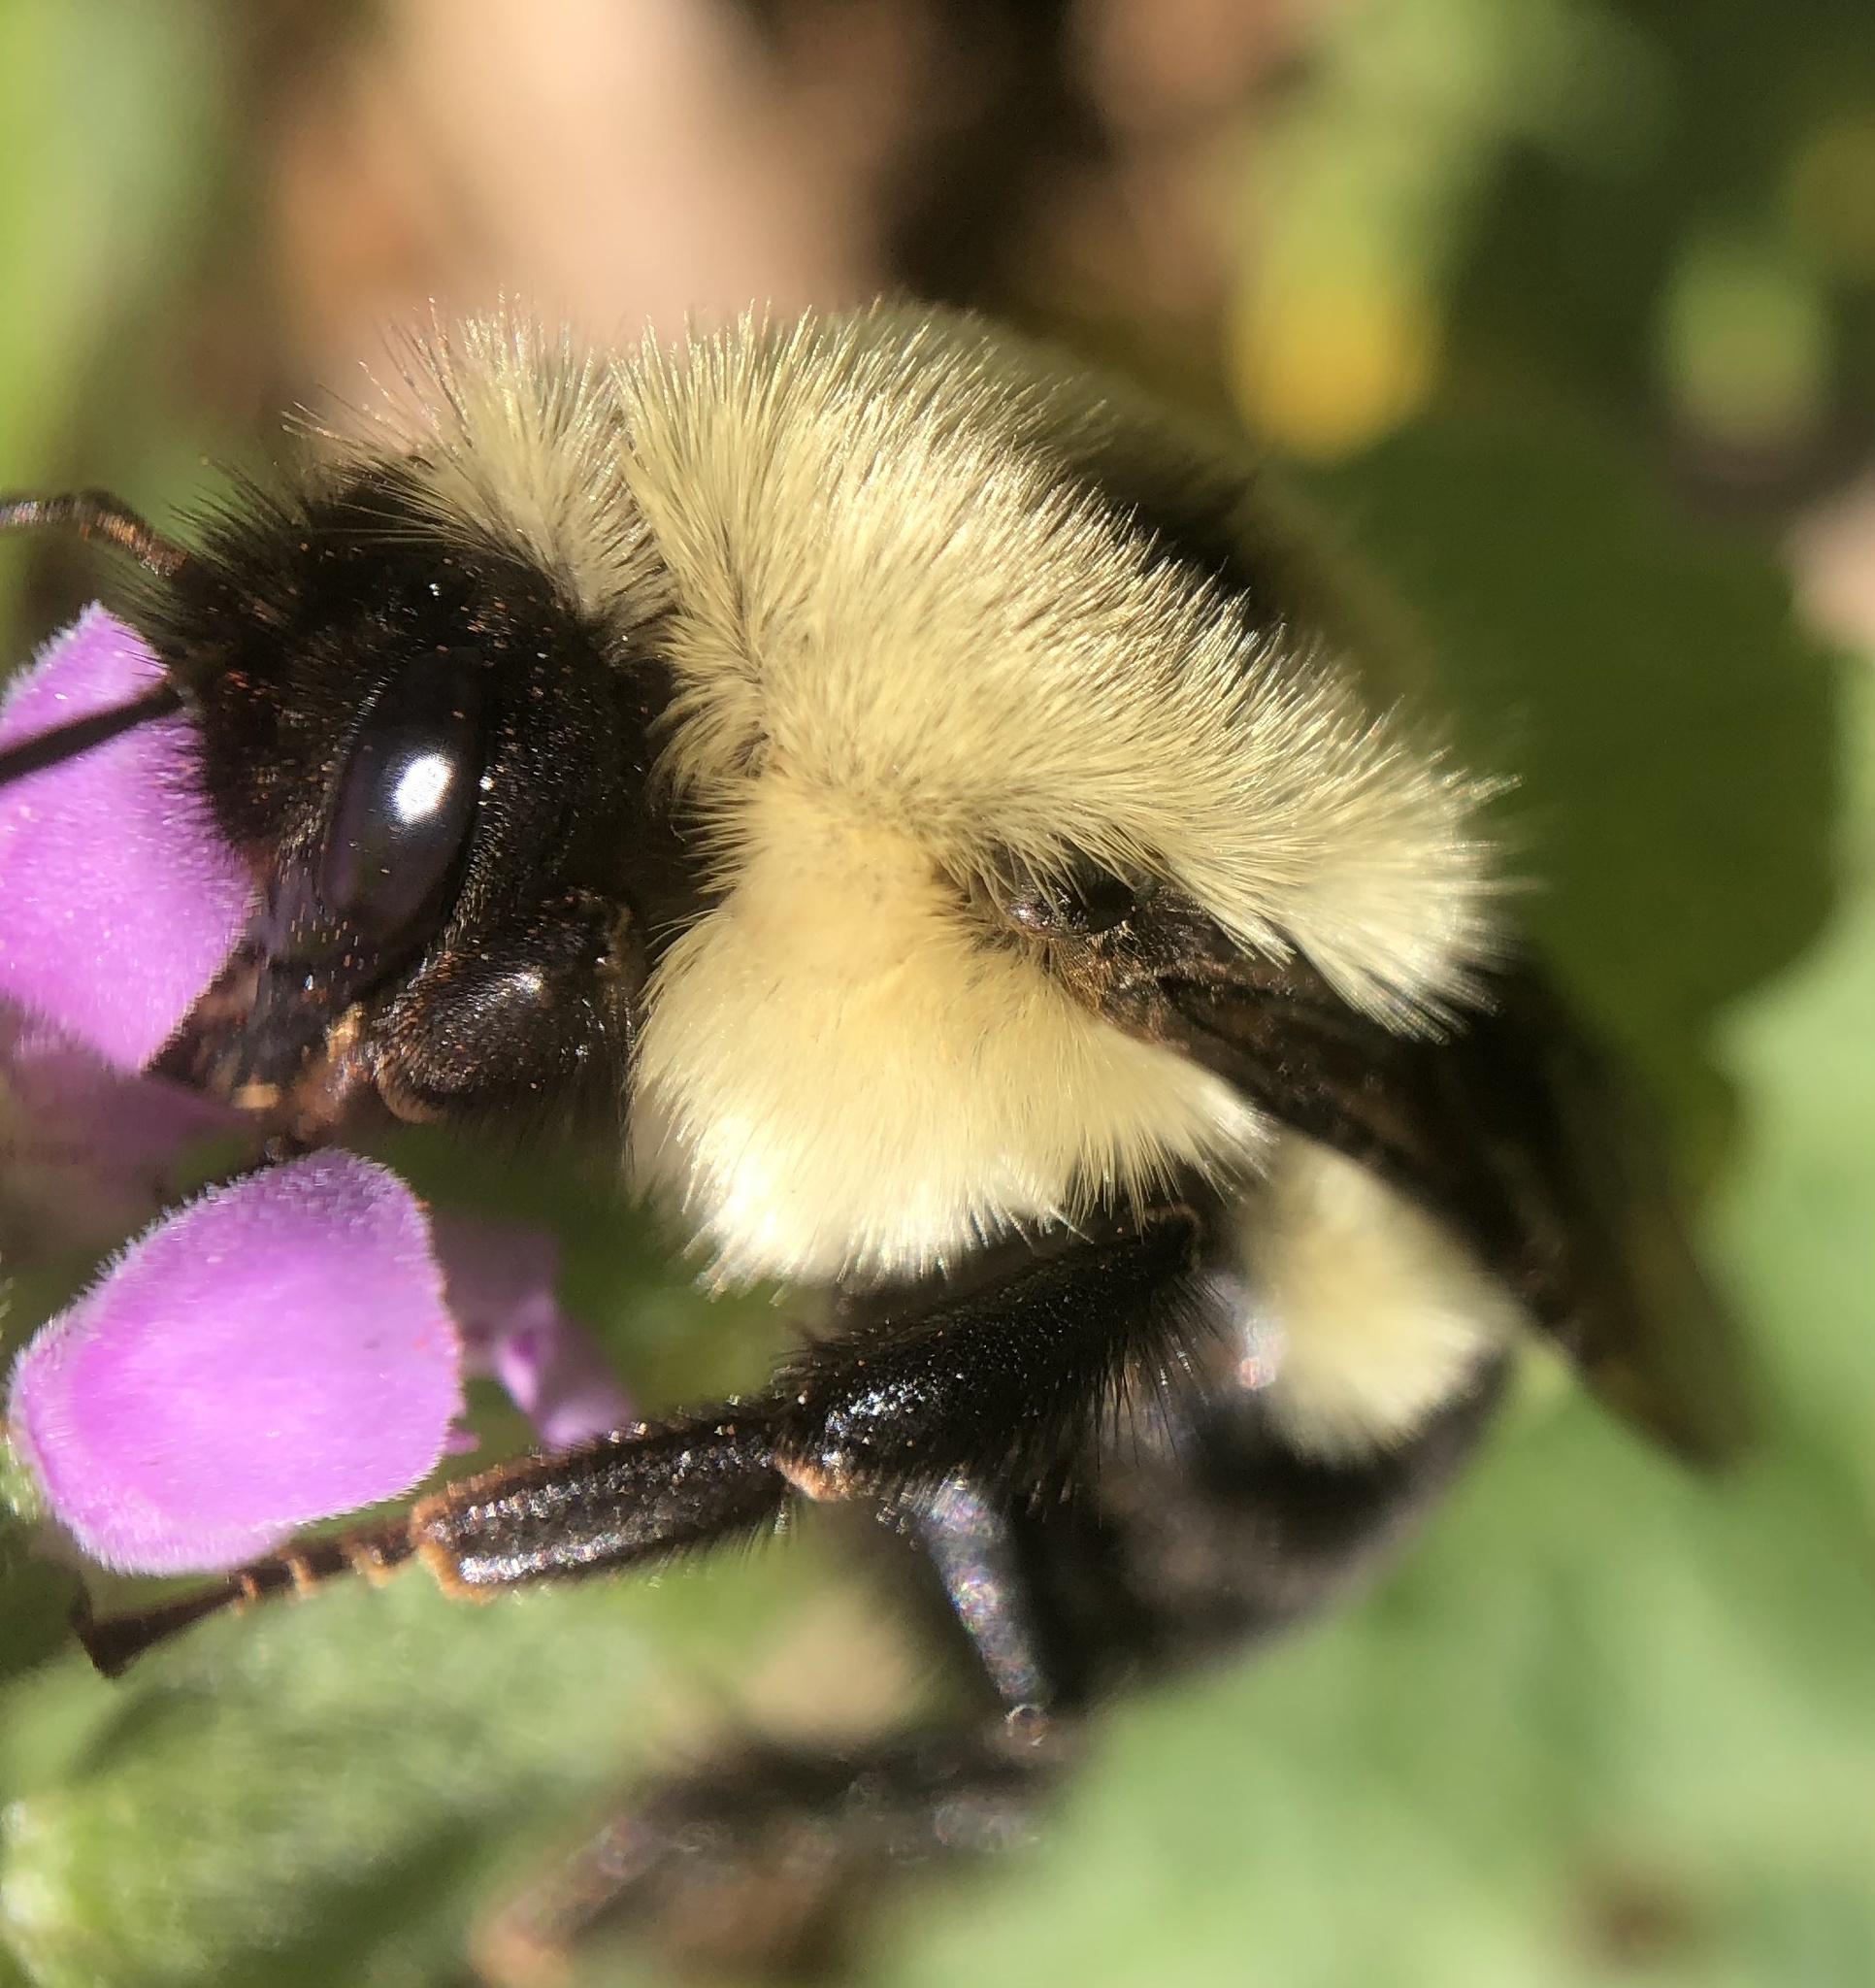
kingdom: Animalia
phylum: Arthropoda
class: Insecta
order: Hymenoptera
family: Apidae
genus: Bombus
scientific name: Bombus bimaculatus
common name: Two-spotted bumble bee
